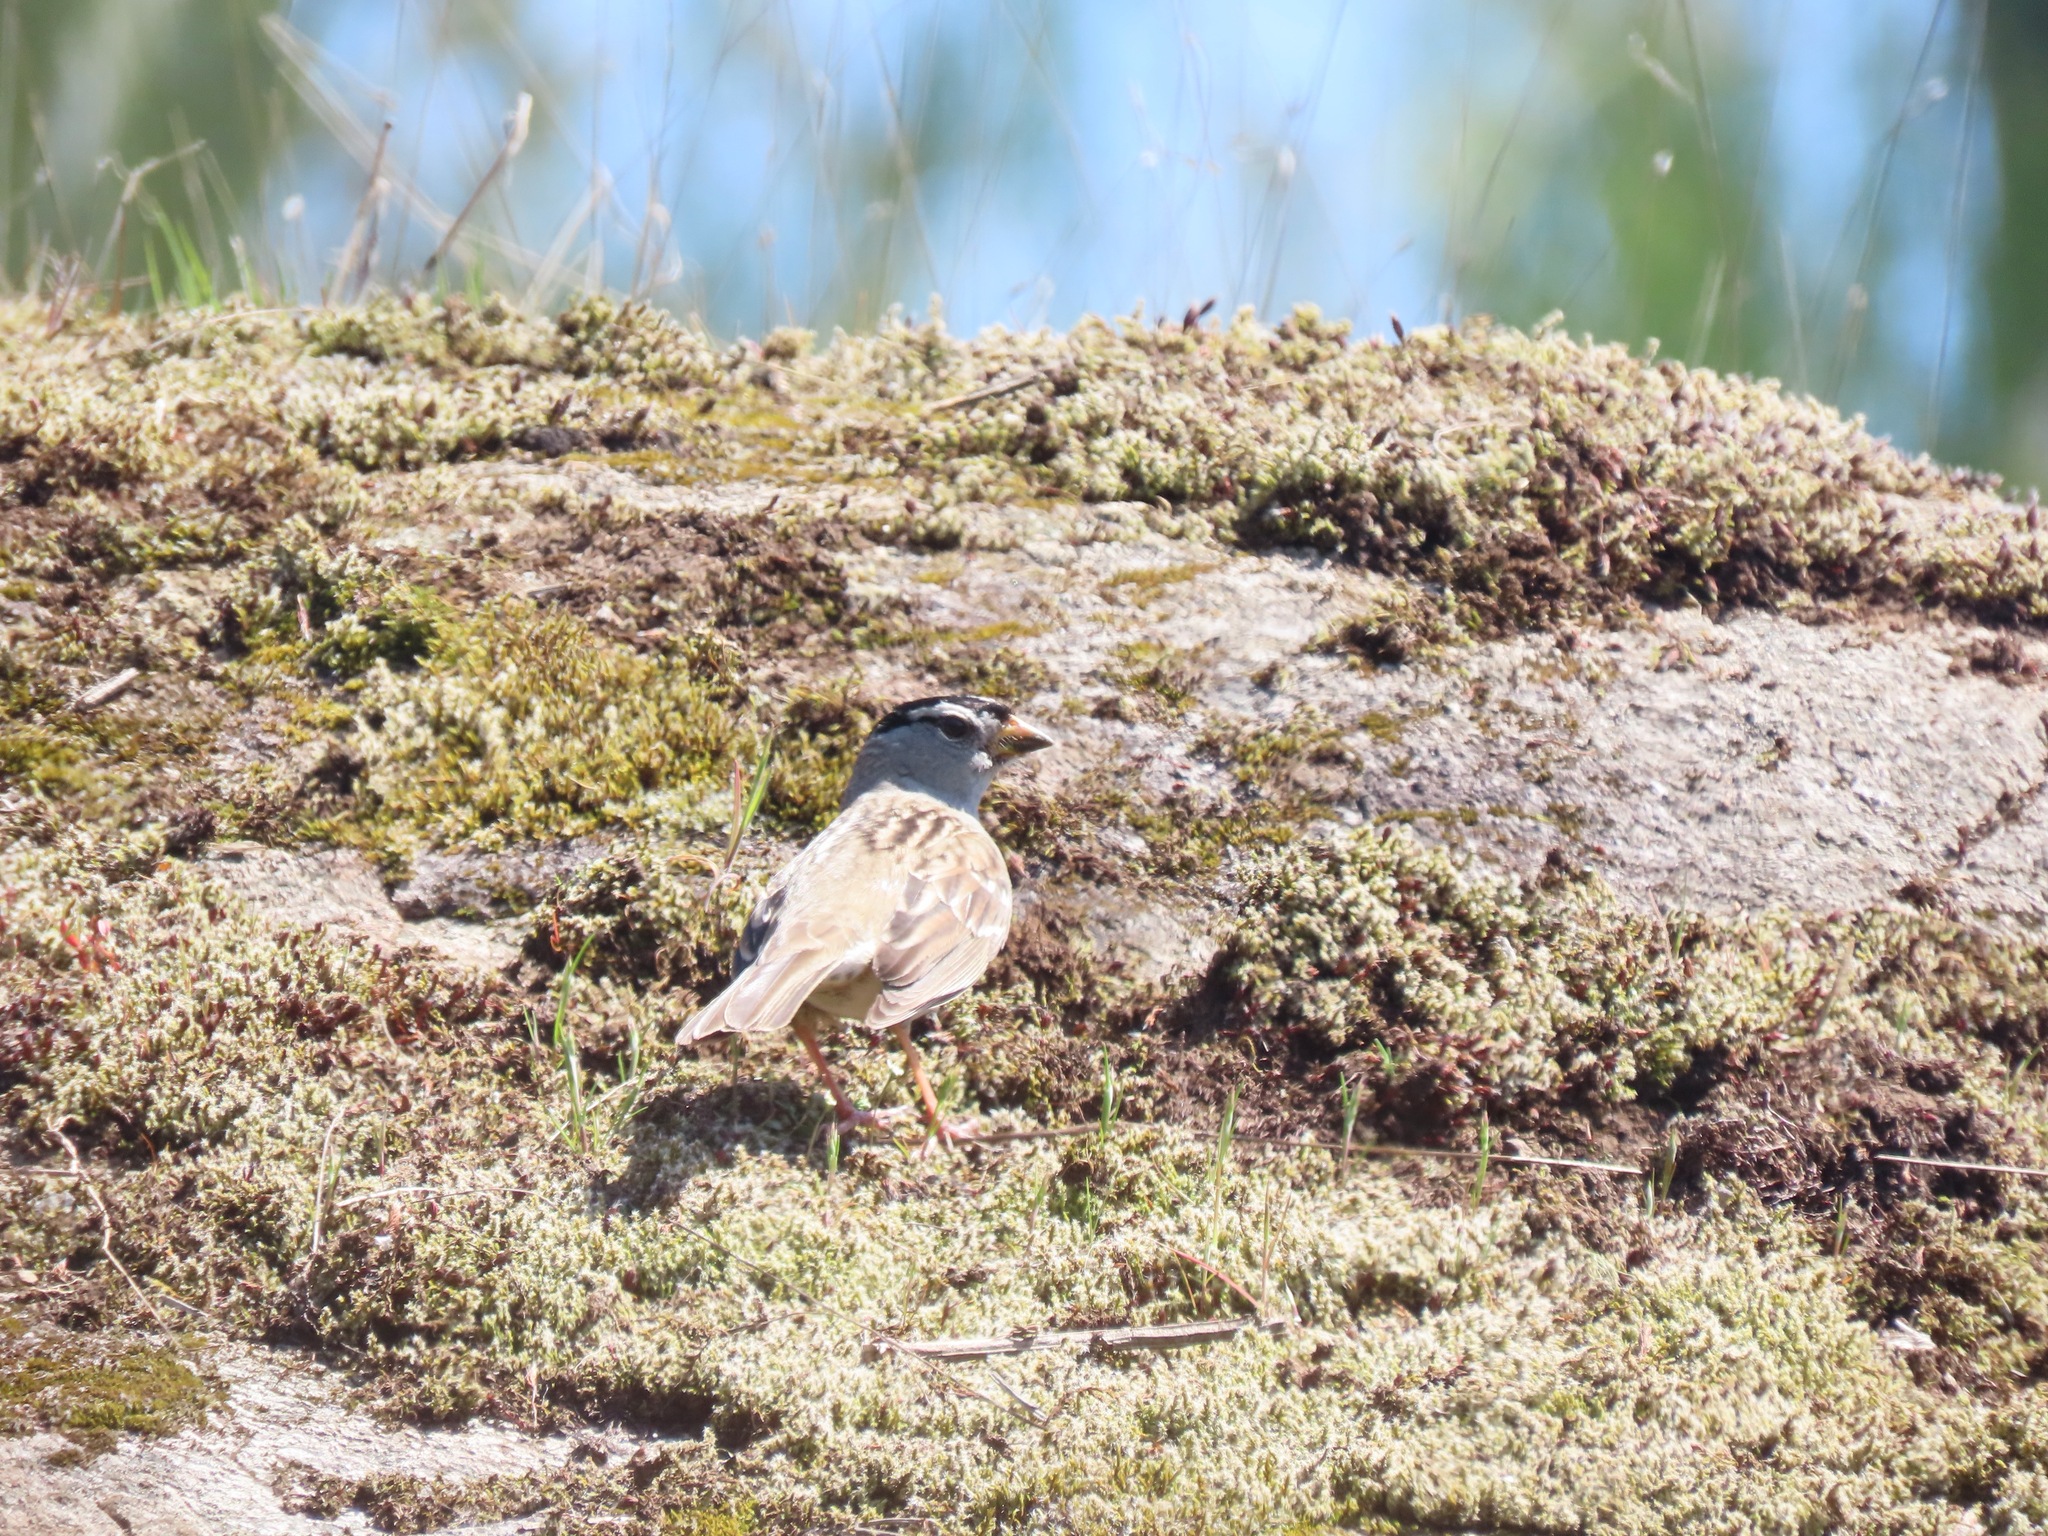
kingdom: Animalia
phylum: Chordata
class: Aves
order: Passeriformes
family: Passerellidae
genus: Zonotrichia
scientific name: Zonotrichia leucophrys
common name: White-crowned sparrow
